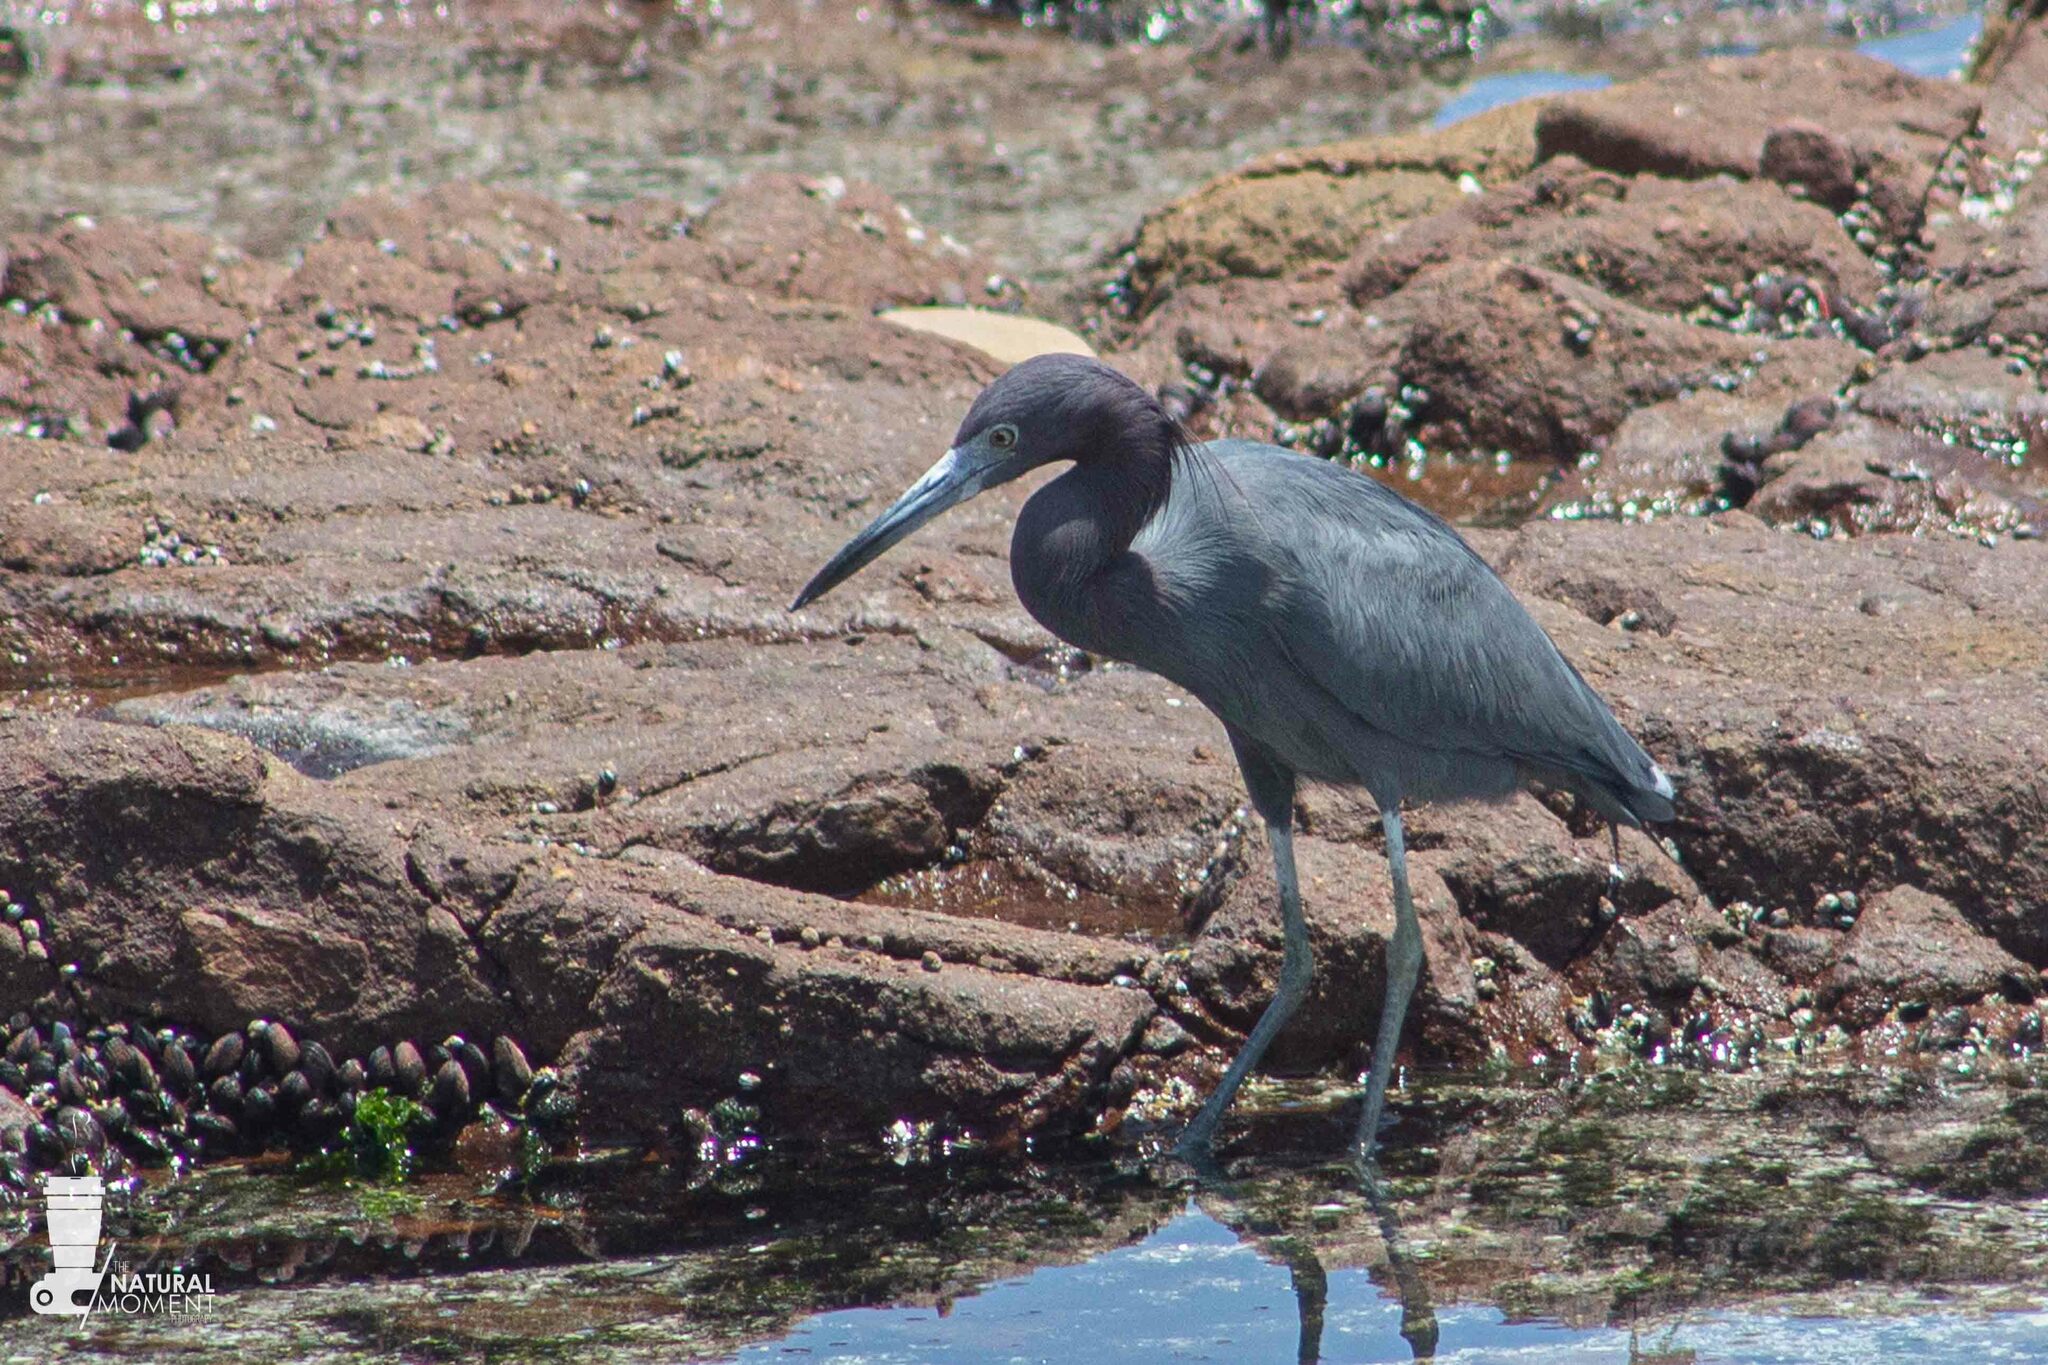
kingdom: Animalia
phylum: Chordata
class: Aves
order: Pelecaniformes
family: Ardeidae
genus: Egretta
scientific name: Egretta caerulea
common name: Little blue heron
